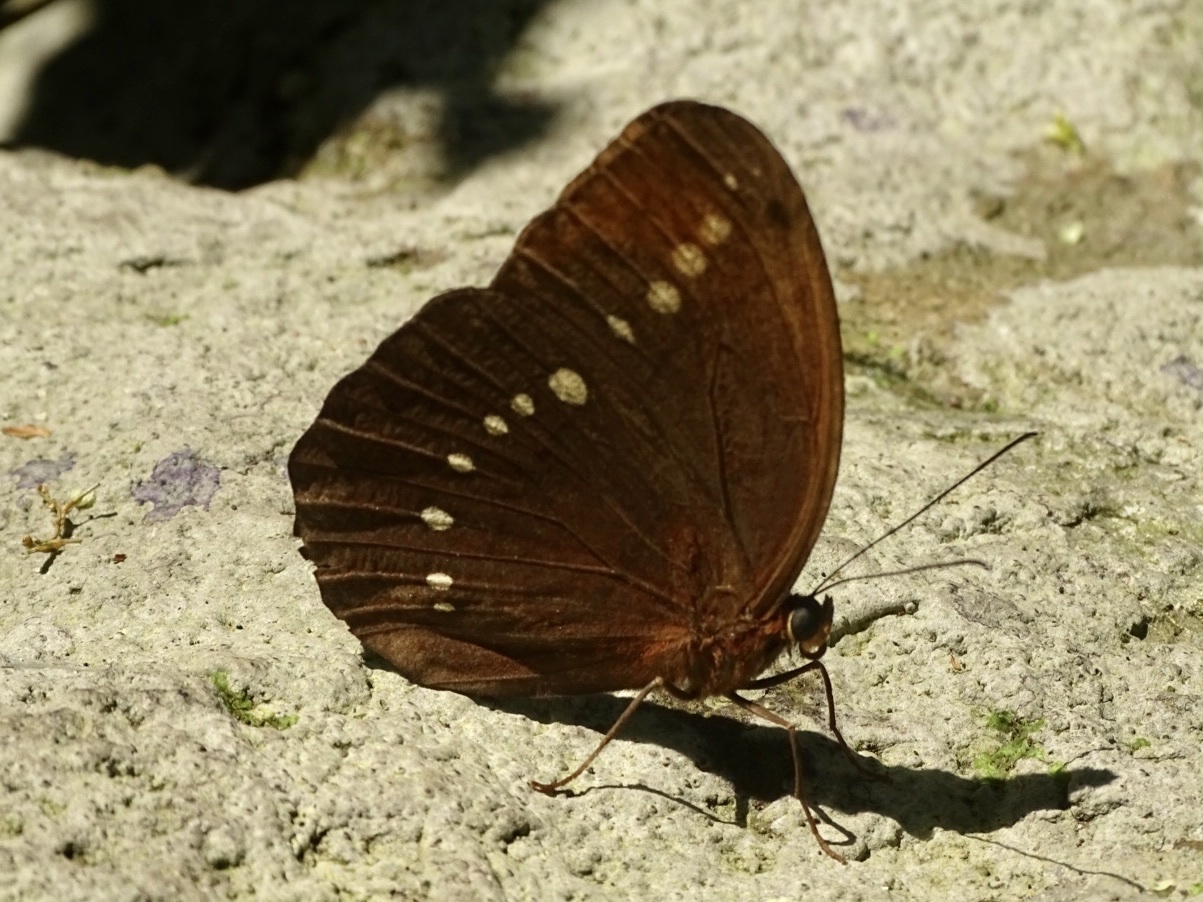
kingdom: Animalia
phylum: Arthropoda
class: Insecta
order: Lepidoptera
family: Nymphalidae
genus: Faunis
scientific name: Faunis eumeus
